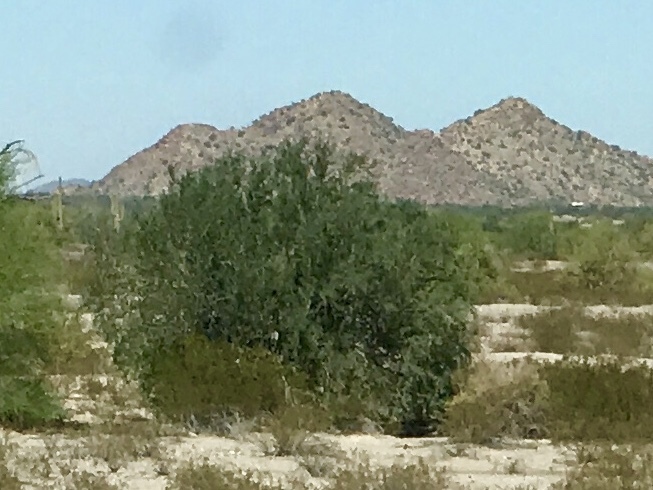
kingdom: Plantae
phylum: Tracheophyta
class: Magnoliopsida
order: Fabales
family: Fabaceae
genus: Olneya
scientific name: Olneya tesota
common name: Desert ironwood
